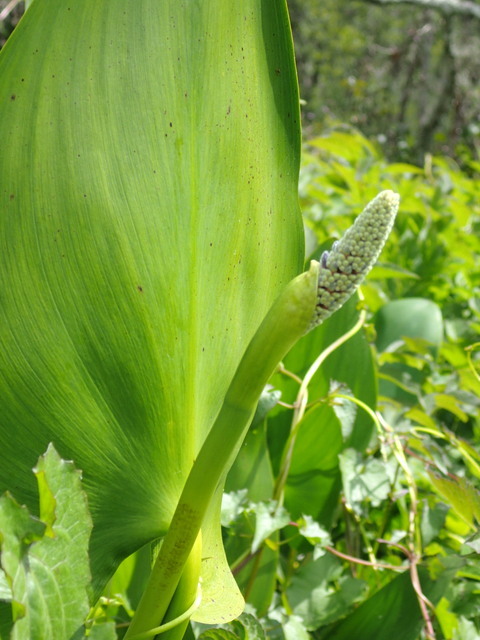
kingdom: Plantae
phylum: Tracheophyta
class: Liliopsida
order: Commelinales
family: Pontederiaceae
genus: Pontederia
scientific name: Pontederia cordata
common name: Pickerelweed
